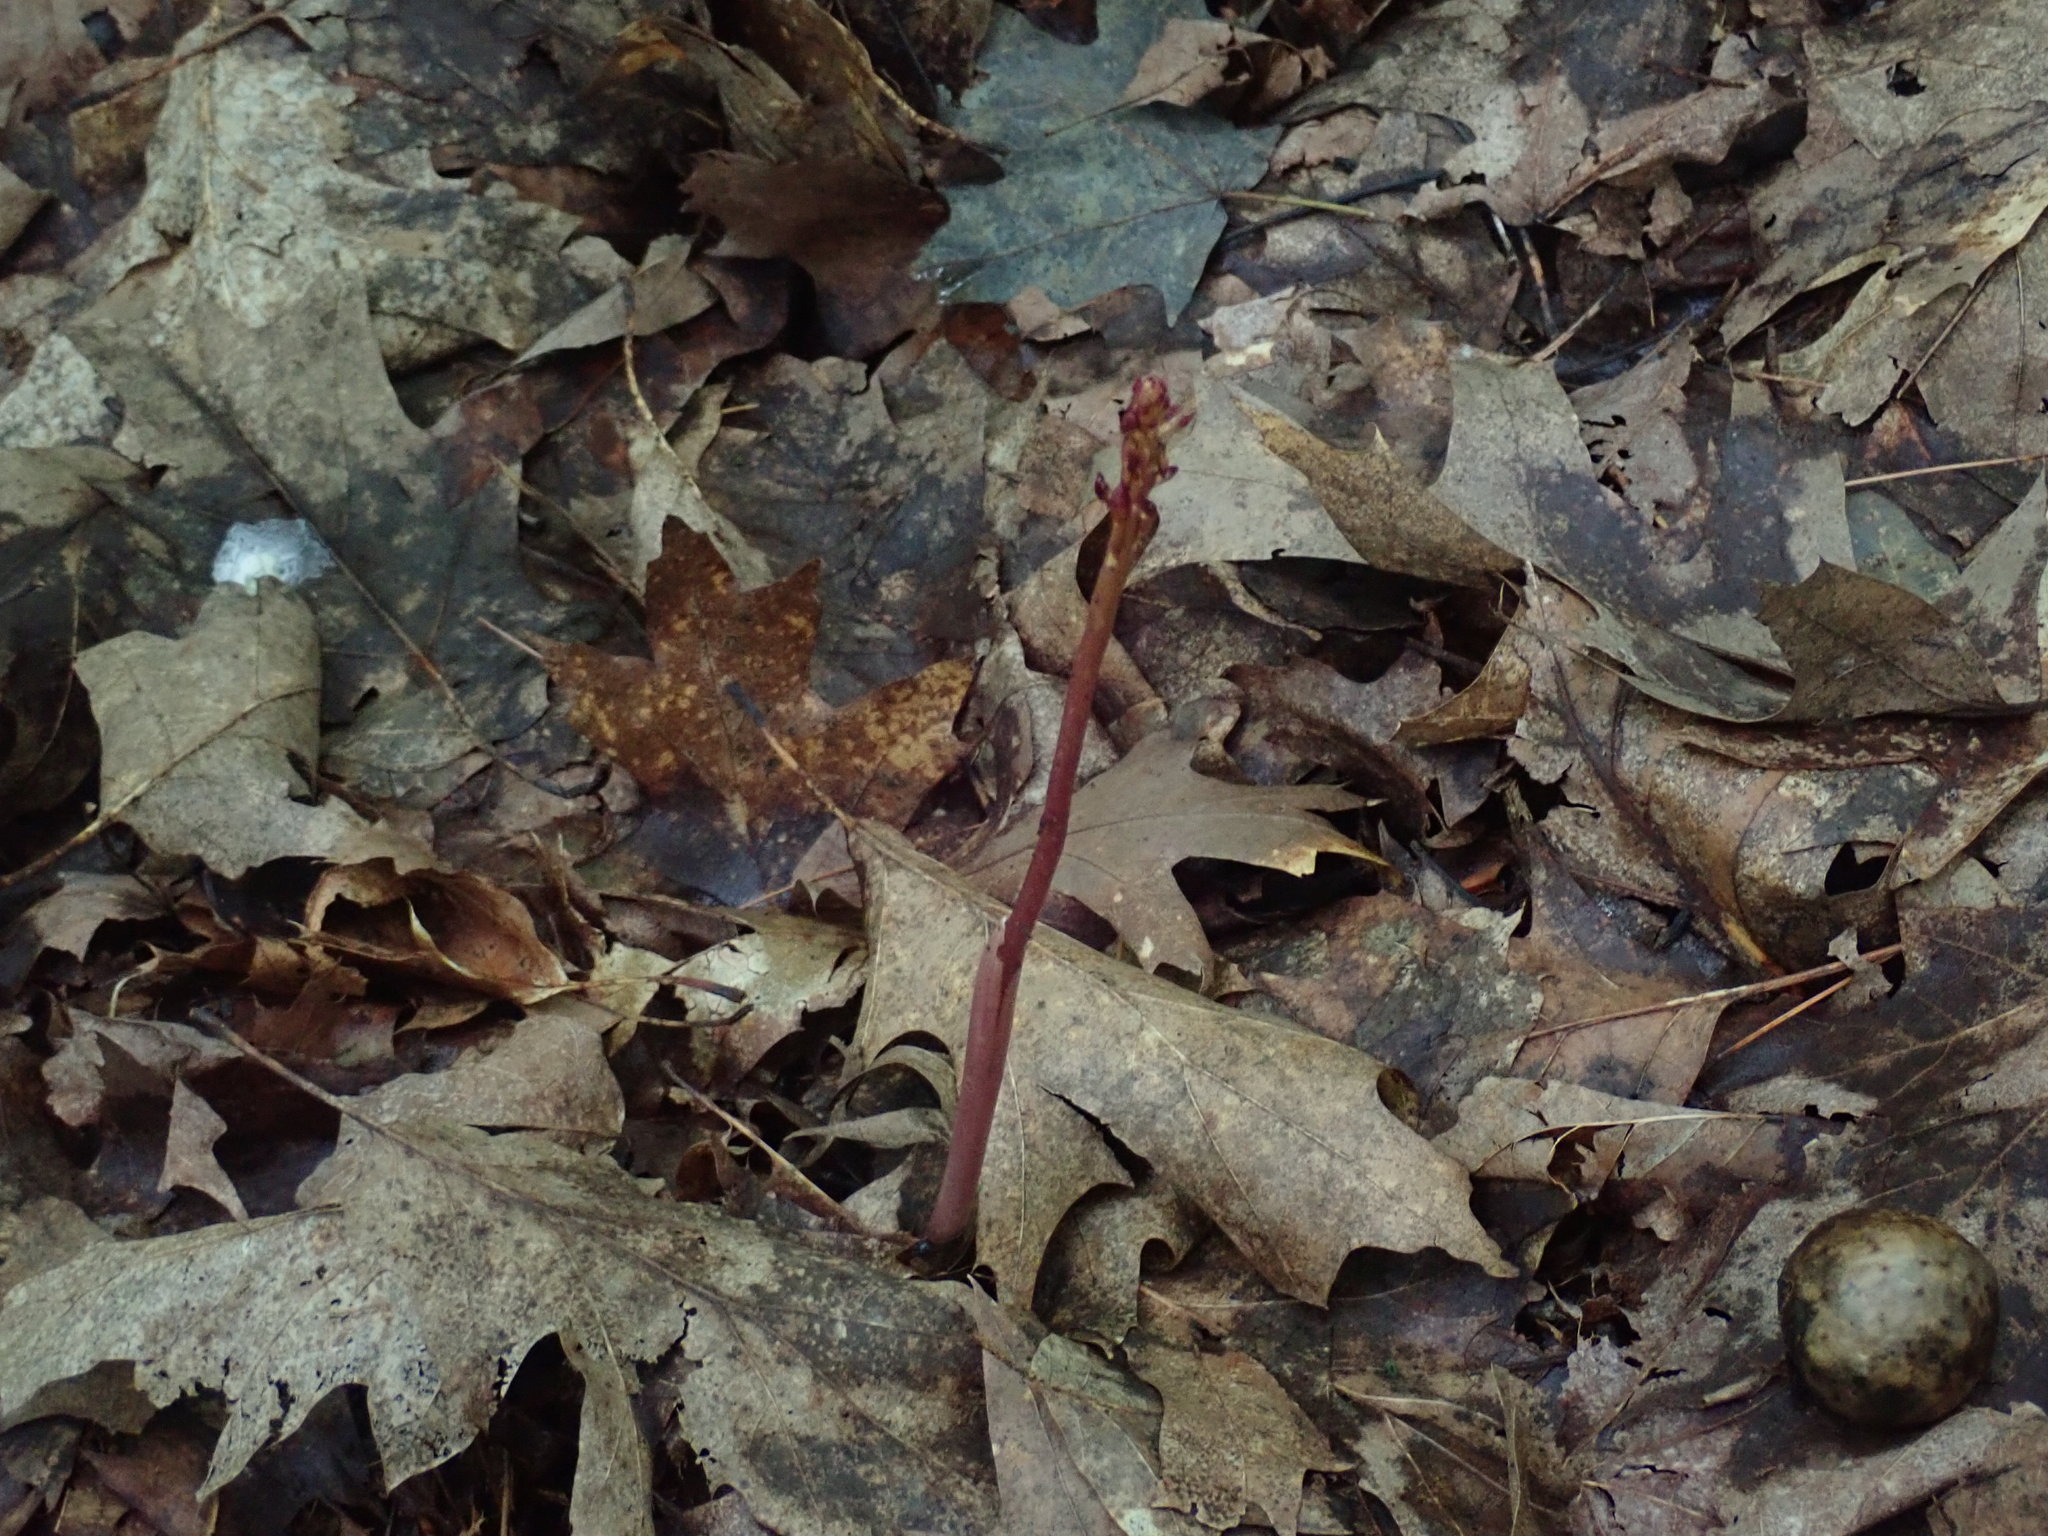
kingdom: Plantae
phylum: Tracheophyta
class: Liliopsida
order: Asparagales
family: Orchidaceae
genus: Corallorhiza
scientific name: Corallorhiza maculata
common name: Spotted coralroot
